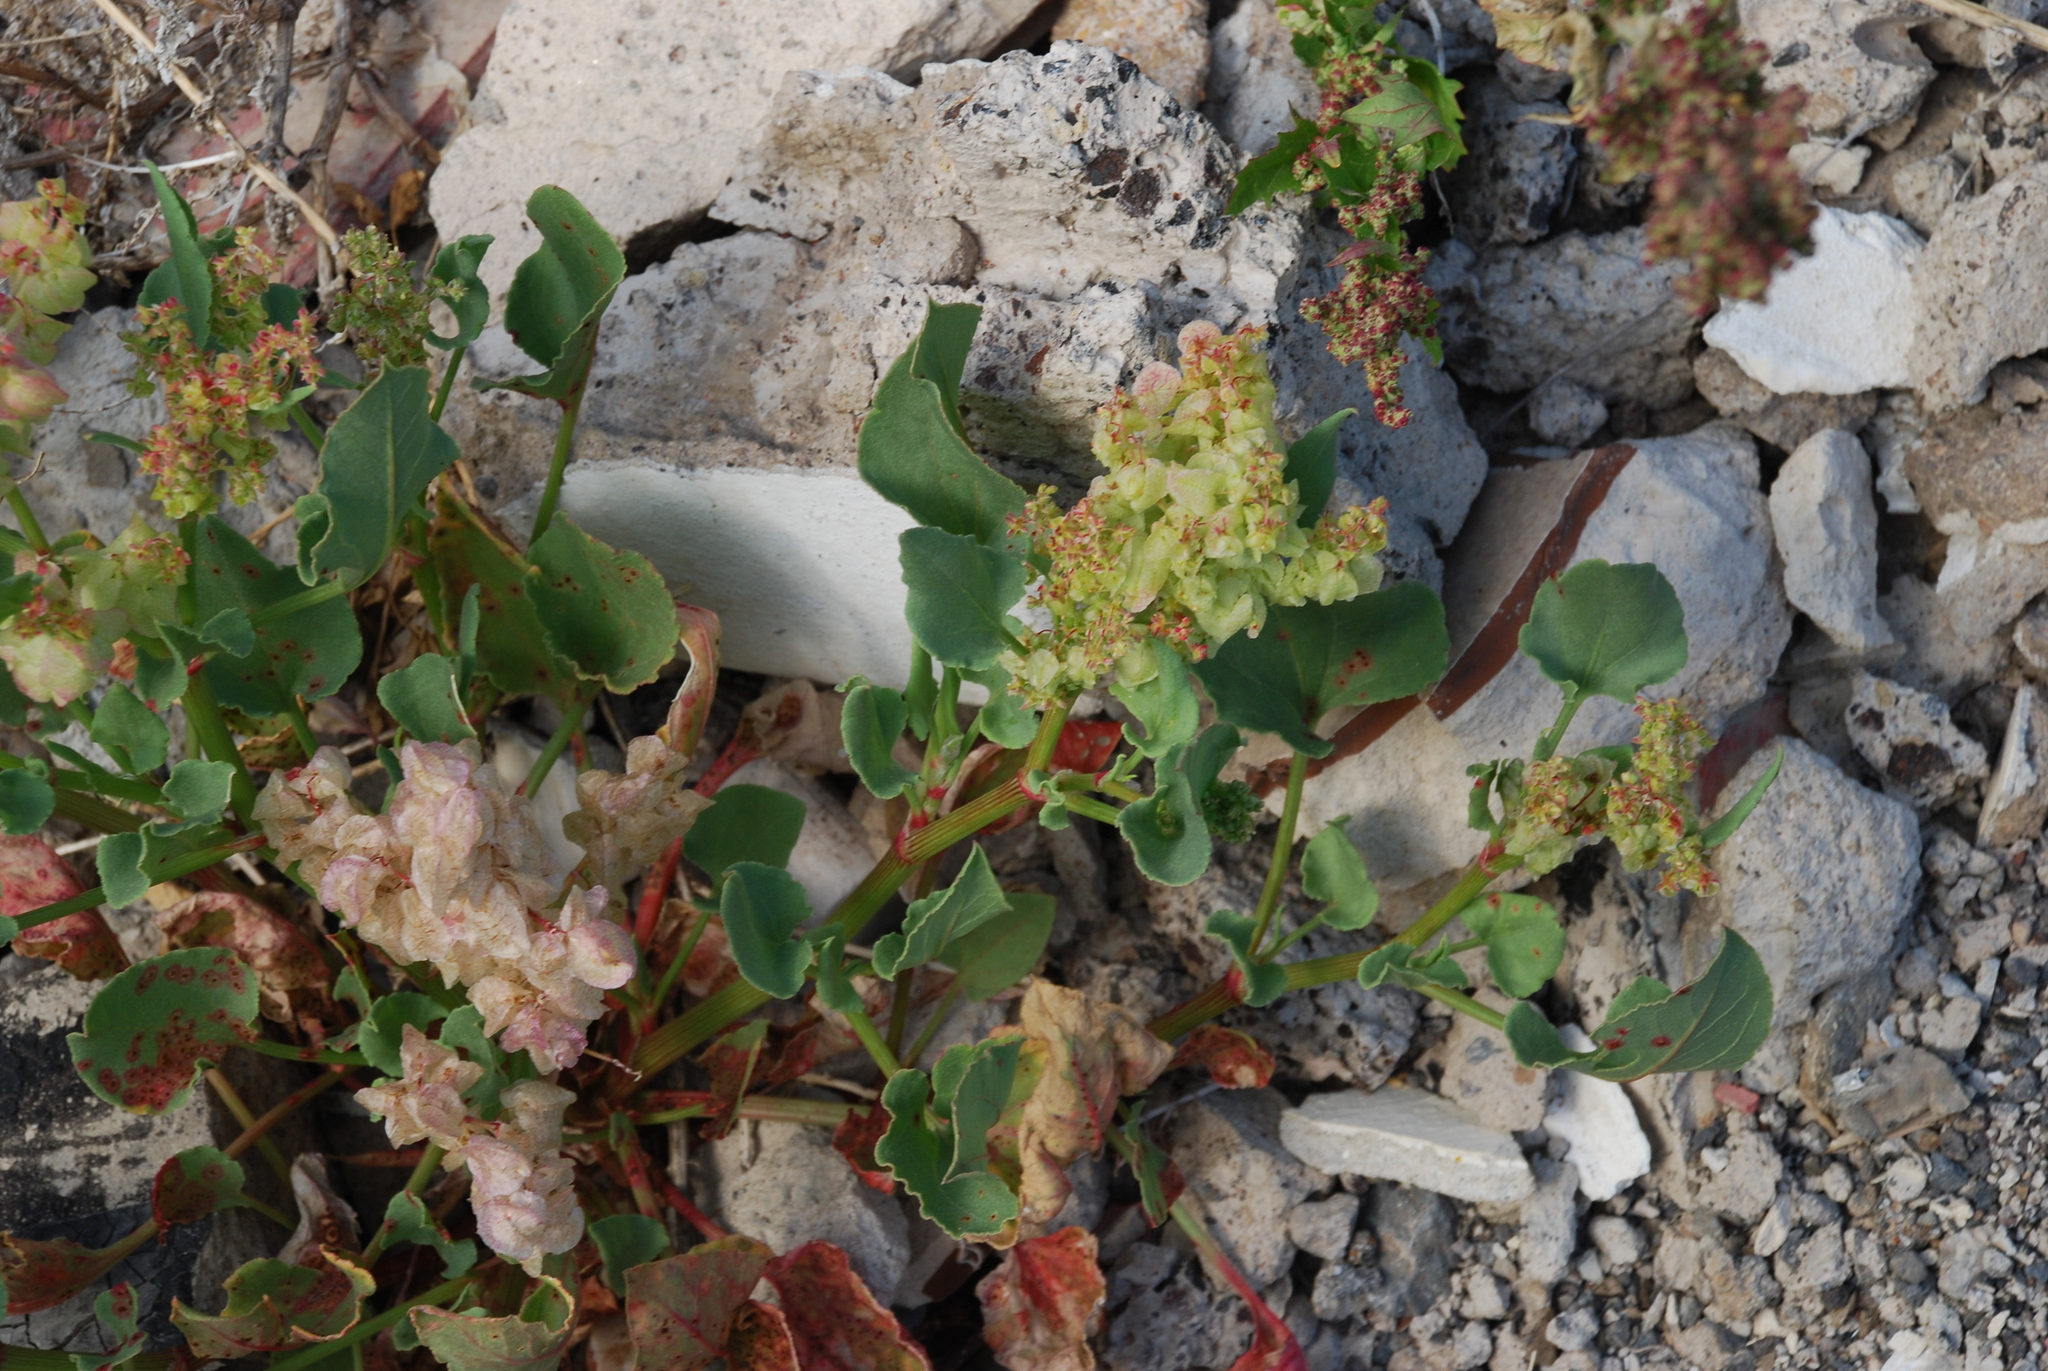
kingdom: Plantae
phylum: Tracheophyta
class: Magnoliopsida
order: Caryophyllales
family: Polygonaceae
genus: Rumex
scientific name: Rumex vesicarius
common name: Bladder dock
